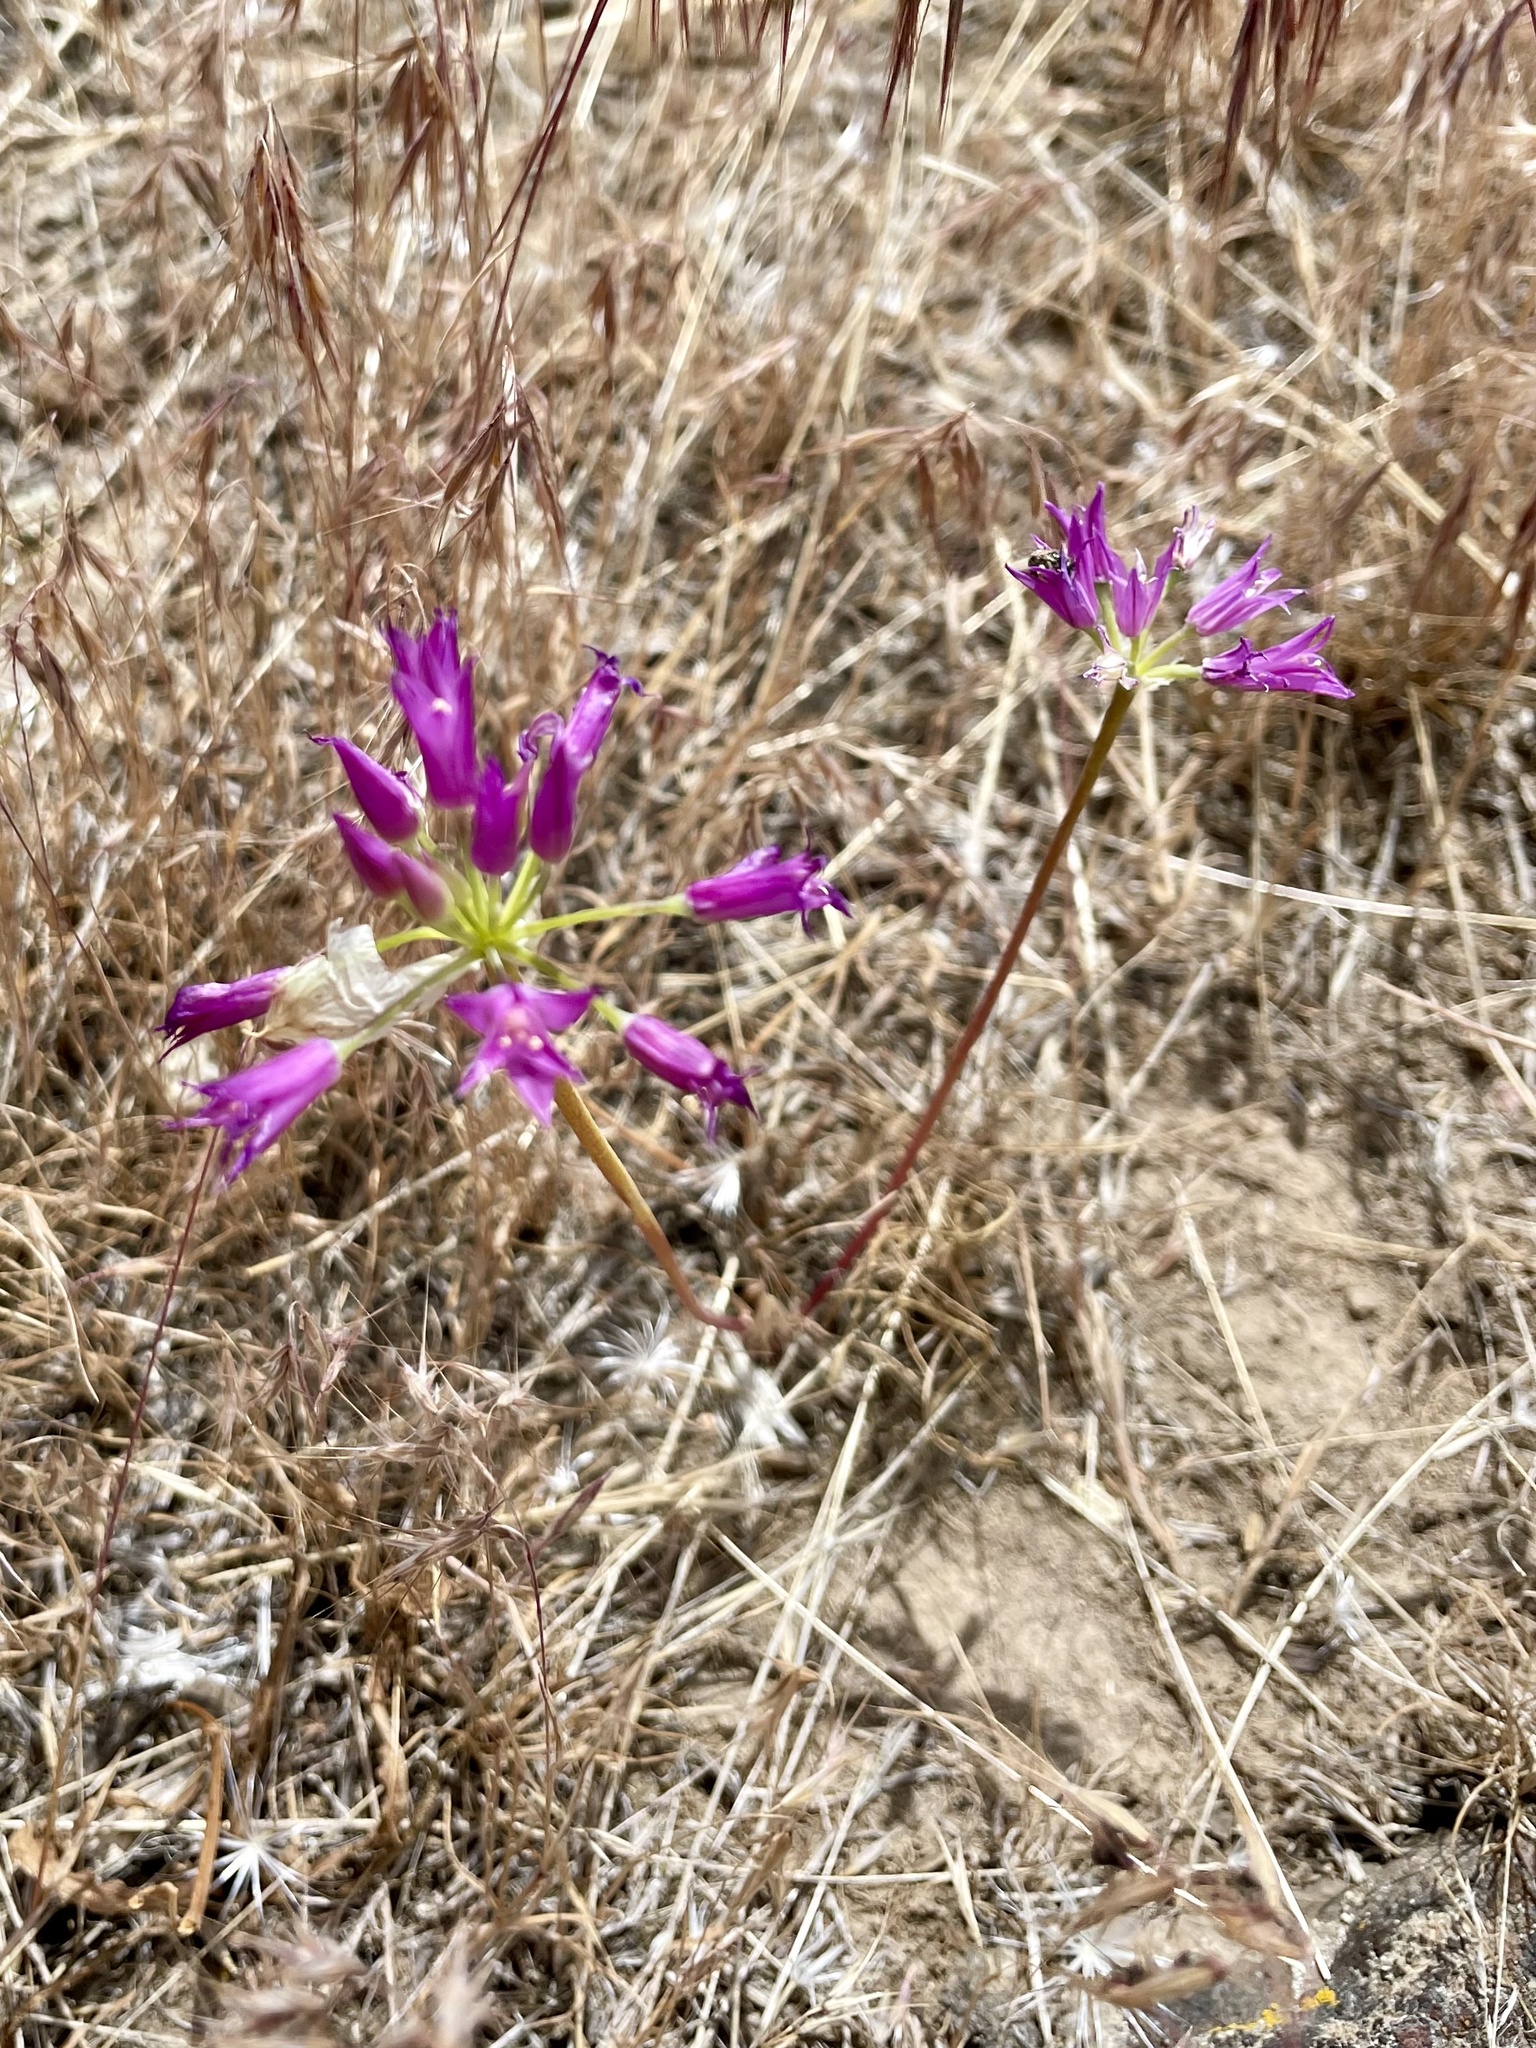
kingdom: Plantae
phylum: Tracheophyta
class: Liliopsida
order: Asparagales
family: Amaryllidaceae
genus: Allium
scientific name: Allium acuminatum
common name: Hooker's onion
